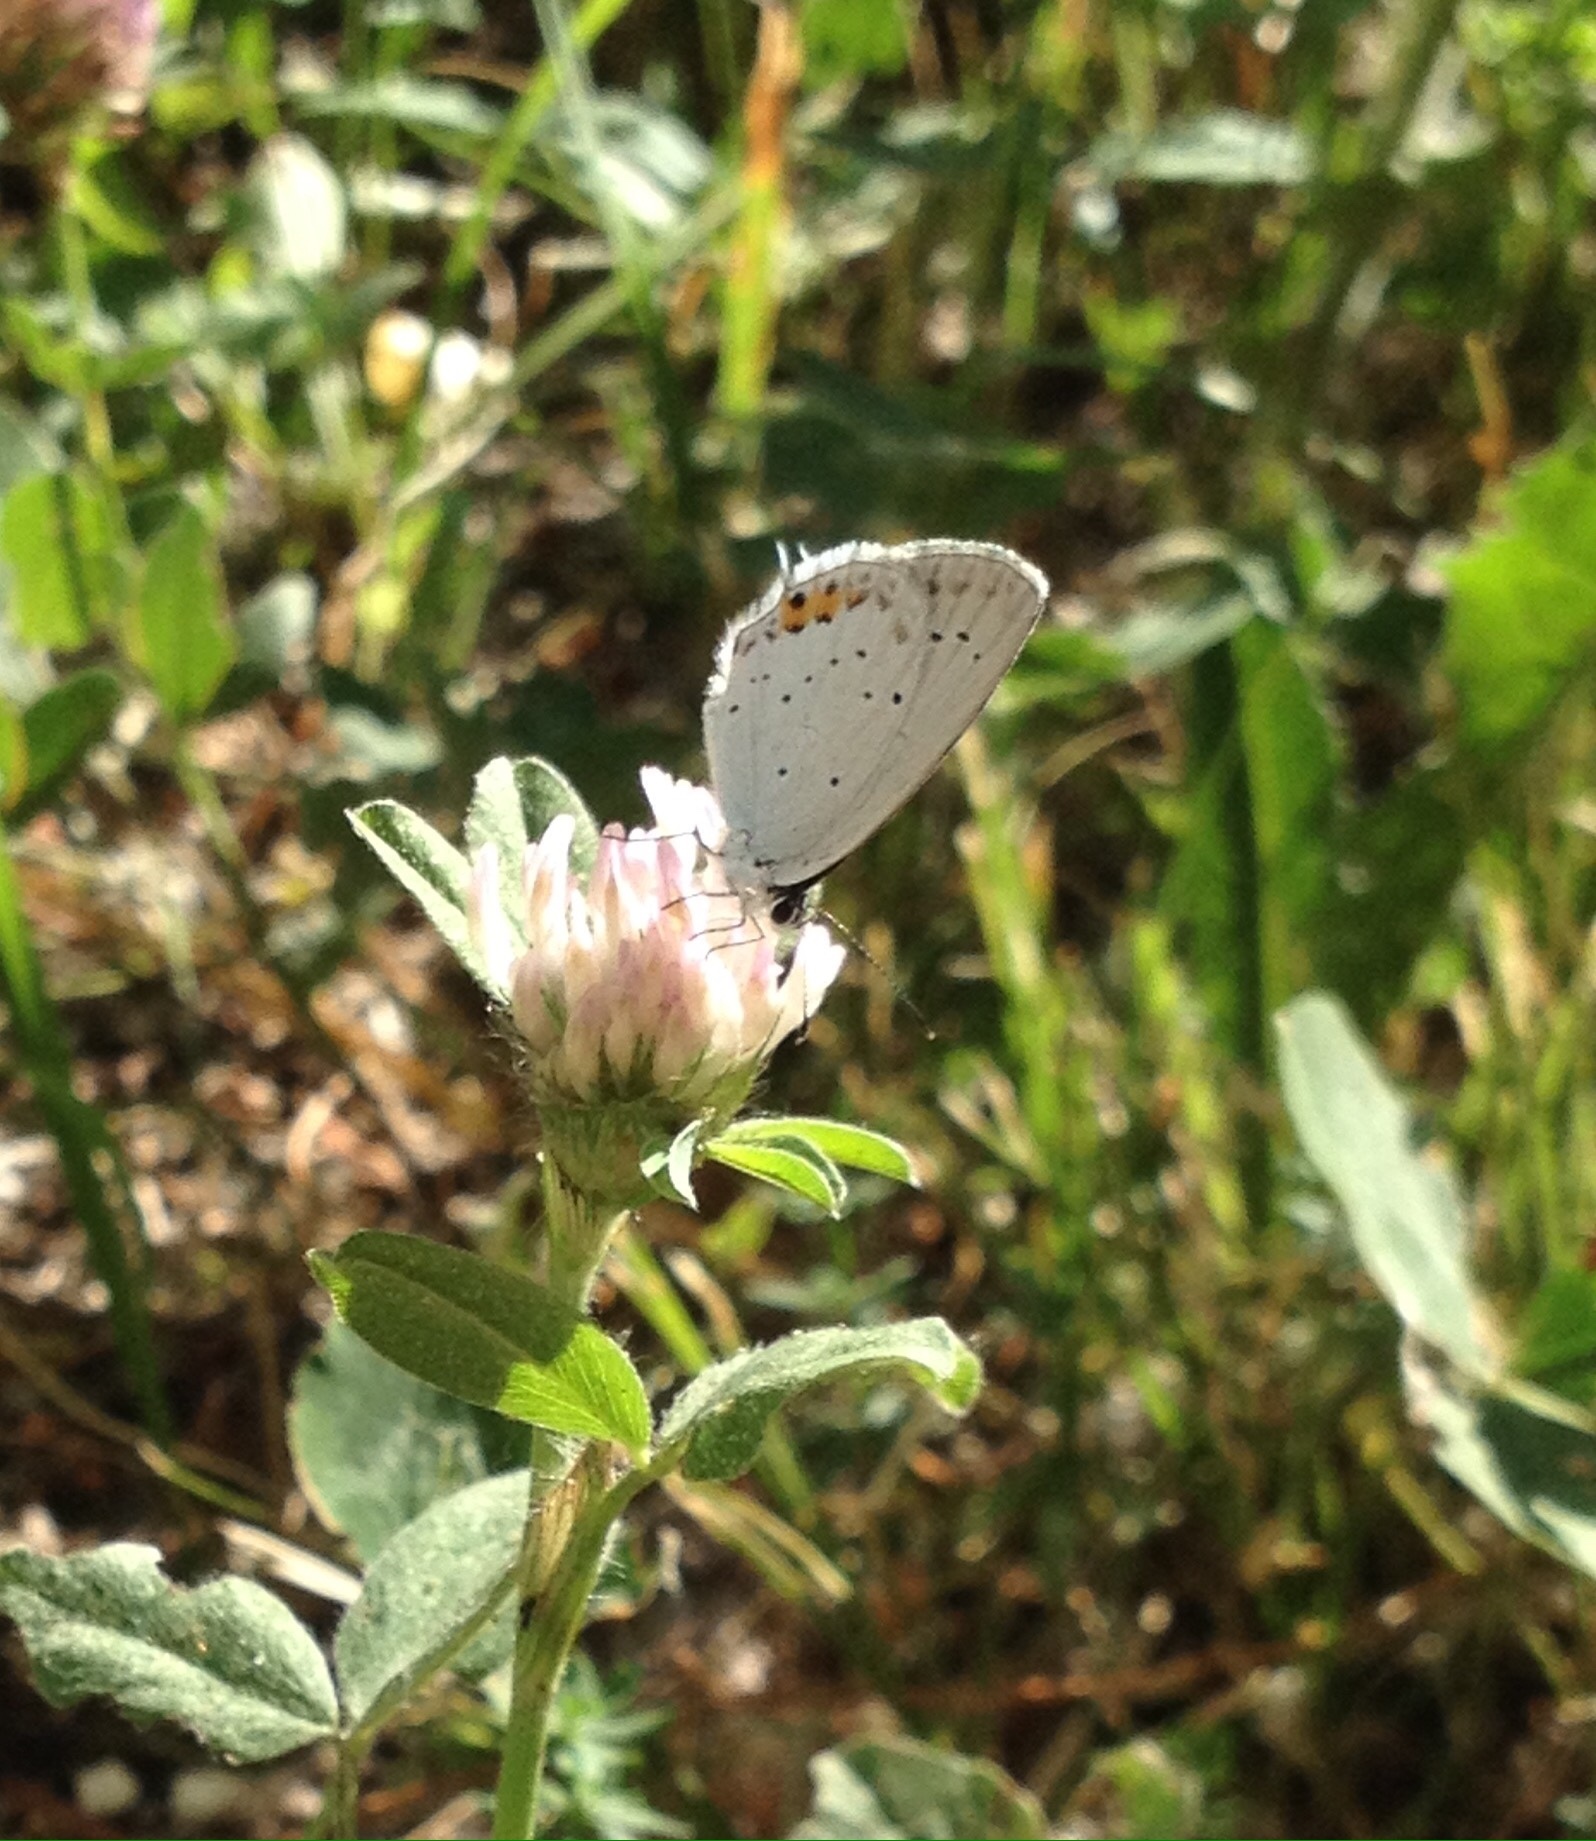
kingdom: Animalia
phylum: Arthropoda
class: Insecta
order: Lepidoptera
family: Lycaenidae
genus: Elkalyce
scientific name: Elkalyce argiades
